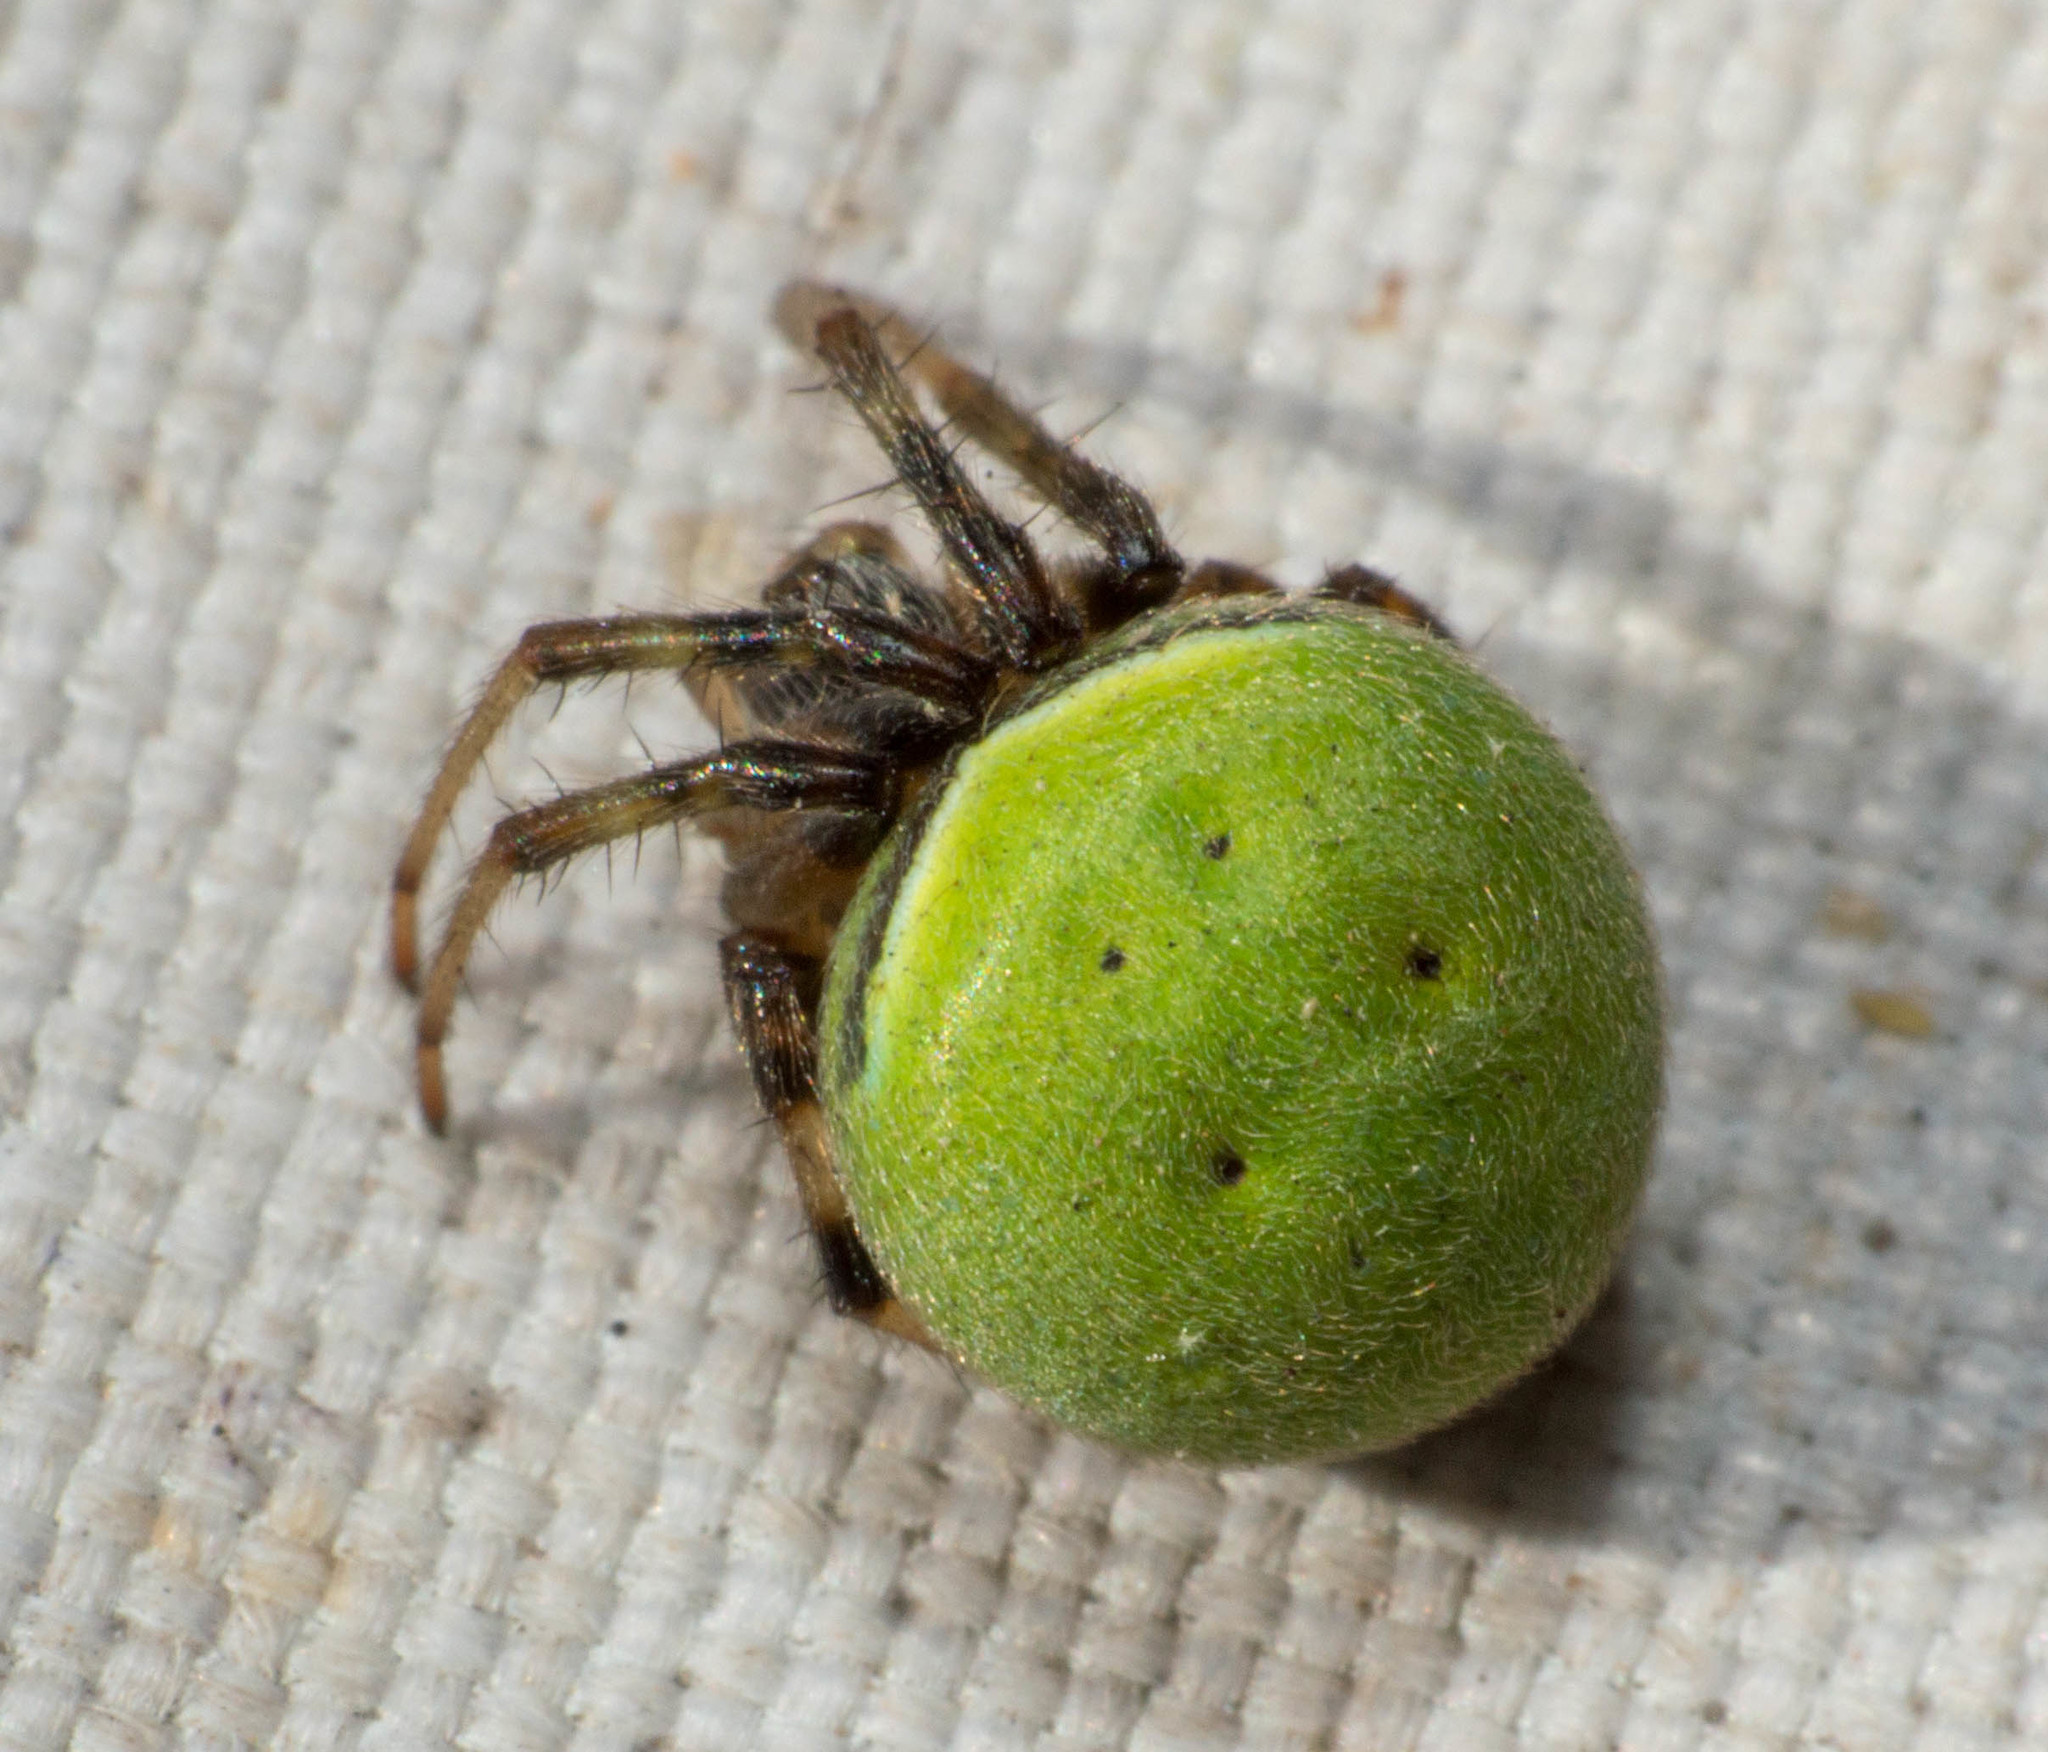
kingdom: Animalia
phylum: Arthropoda
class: Arachnida
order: Araneae
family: Araneidae
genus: Araneus
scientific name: Araneus lathyrinus
